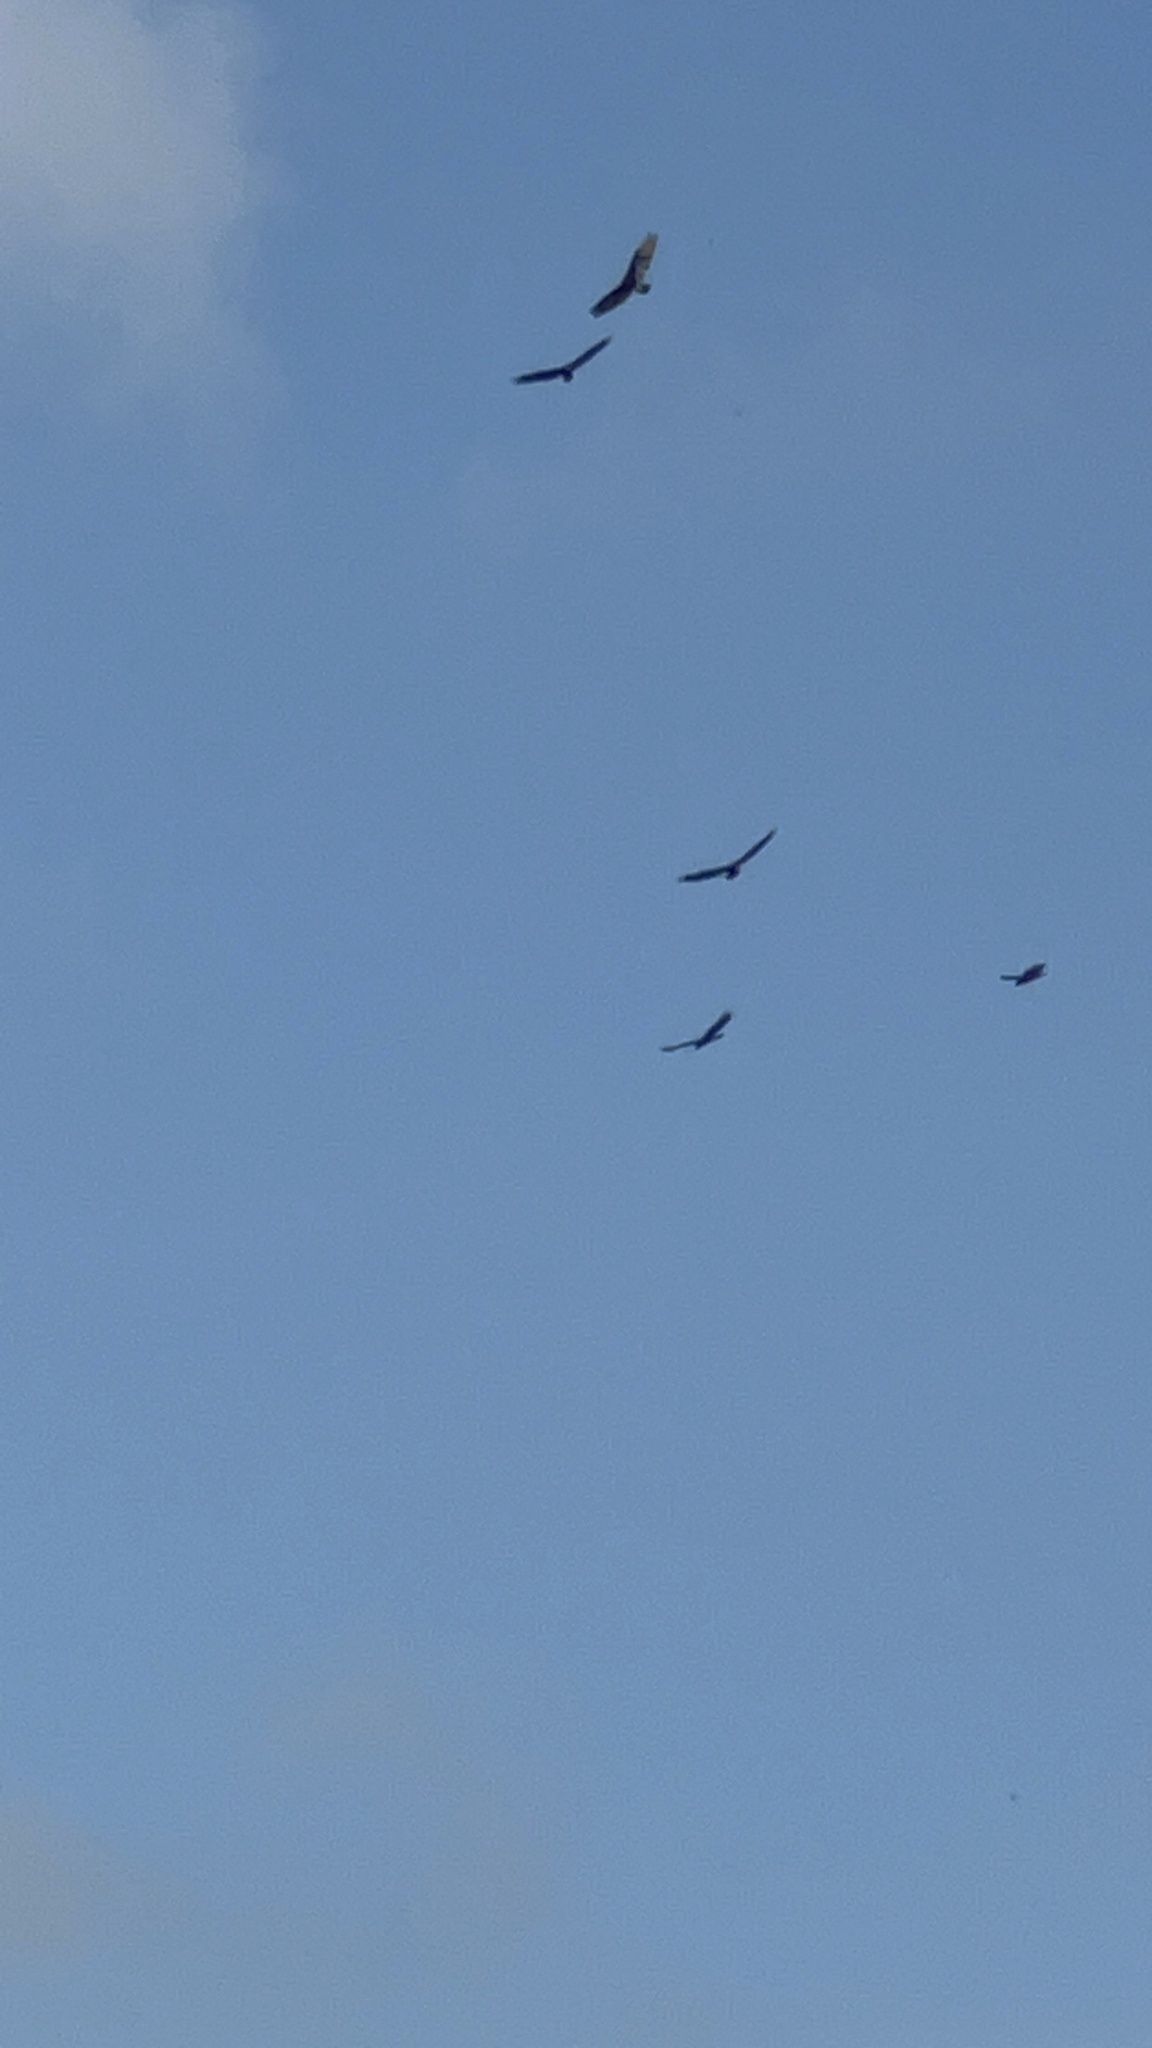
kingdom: Animalia
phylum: Chordata
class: Aves
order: Accipitriformes
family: Cathartidae
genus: Cathartes
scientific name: Cathartes aura
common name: Turkey vulture
